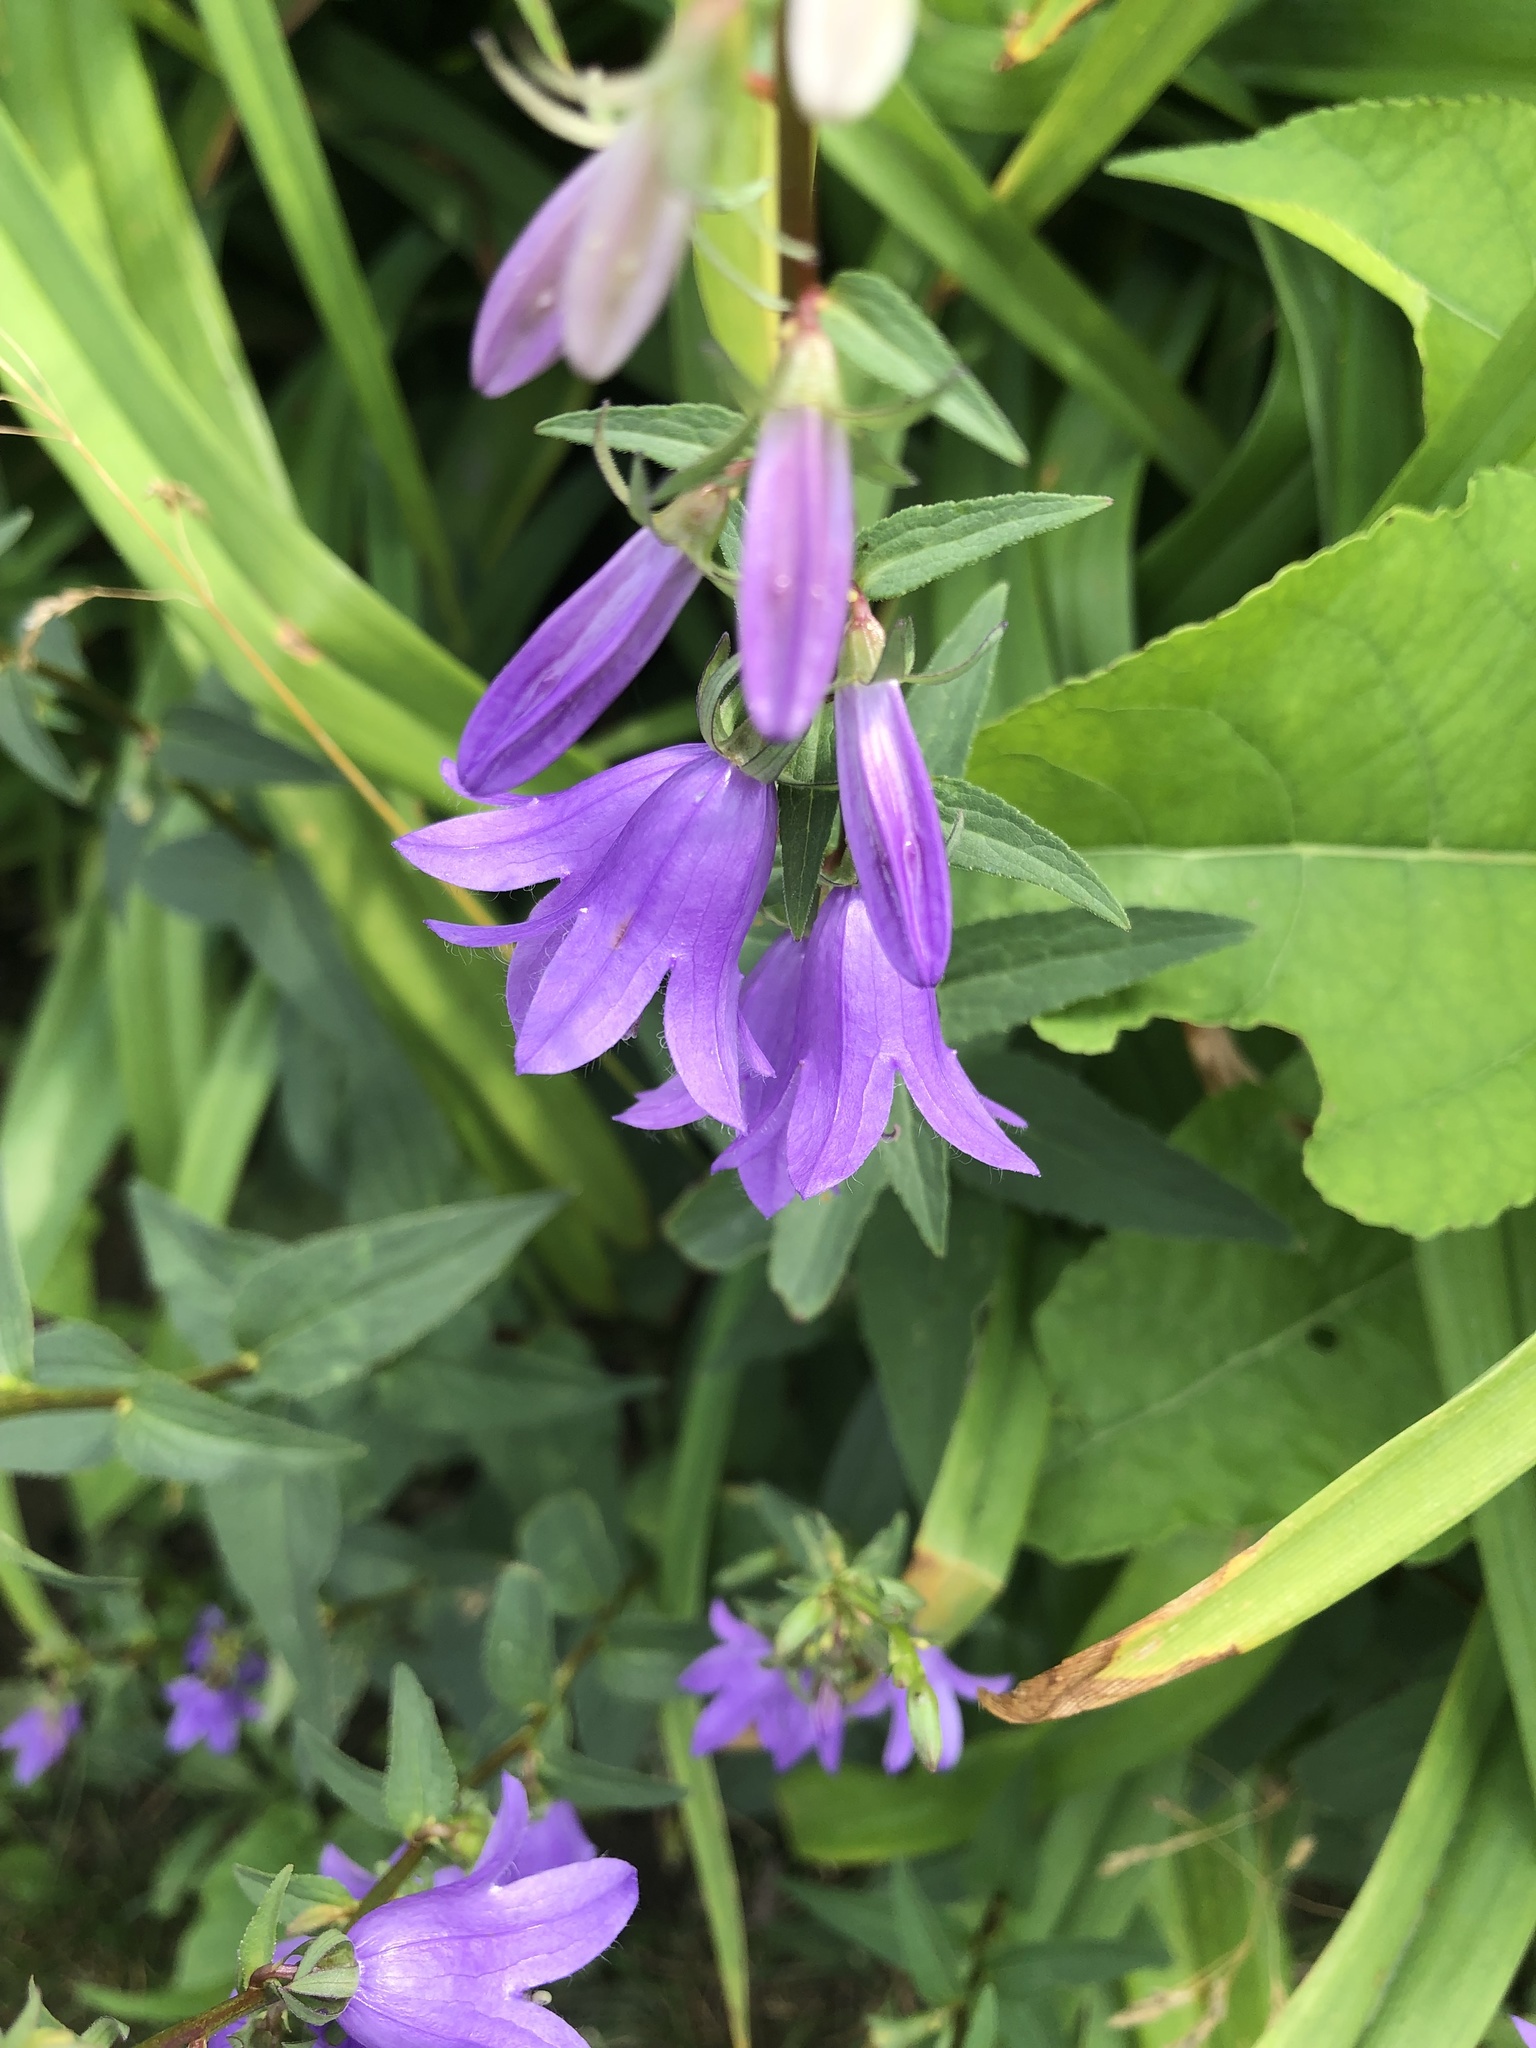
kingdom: Plantae
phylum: Tracheophyta
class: Magnoliopsida
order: Asterales
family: Campanulaceae
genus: Campanula
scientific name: Campanula rapunculoides
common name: Creeping bellflower
